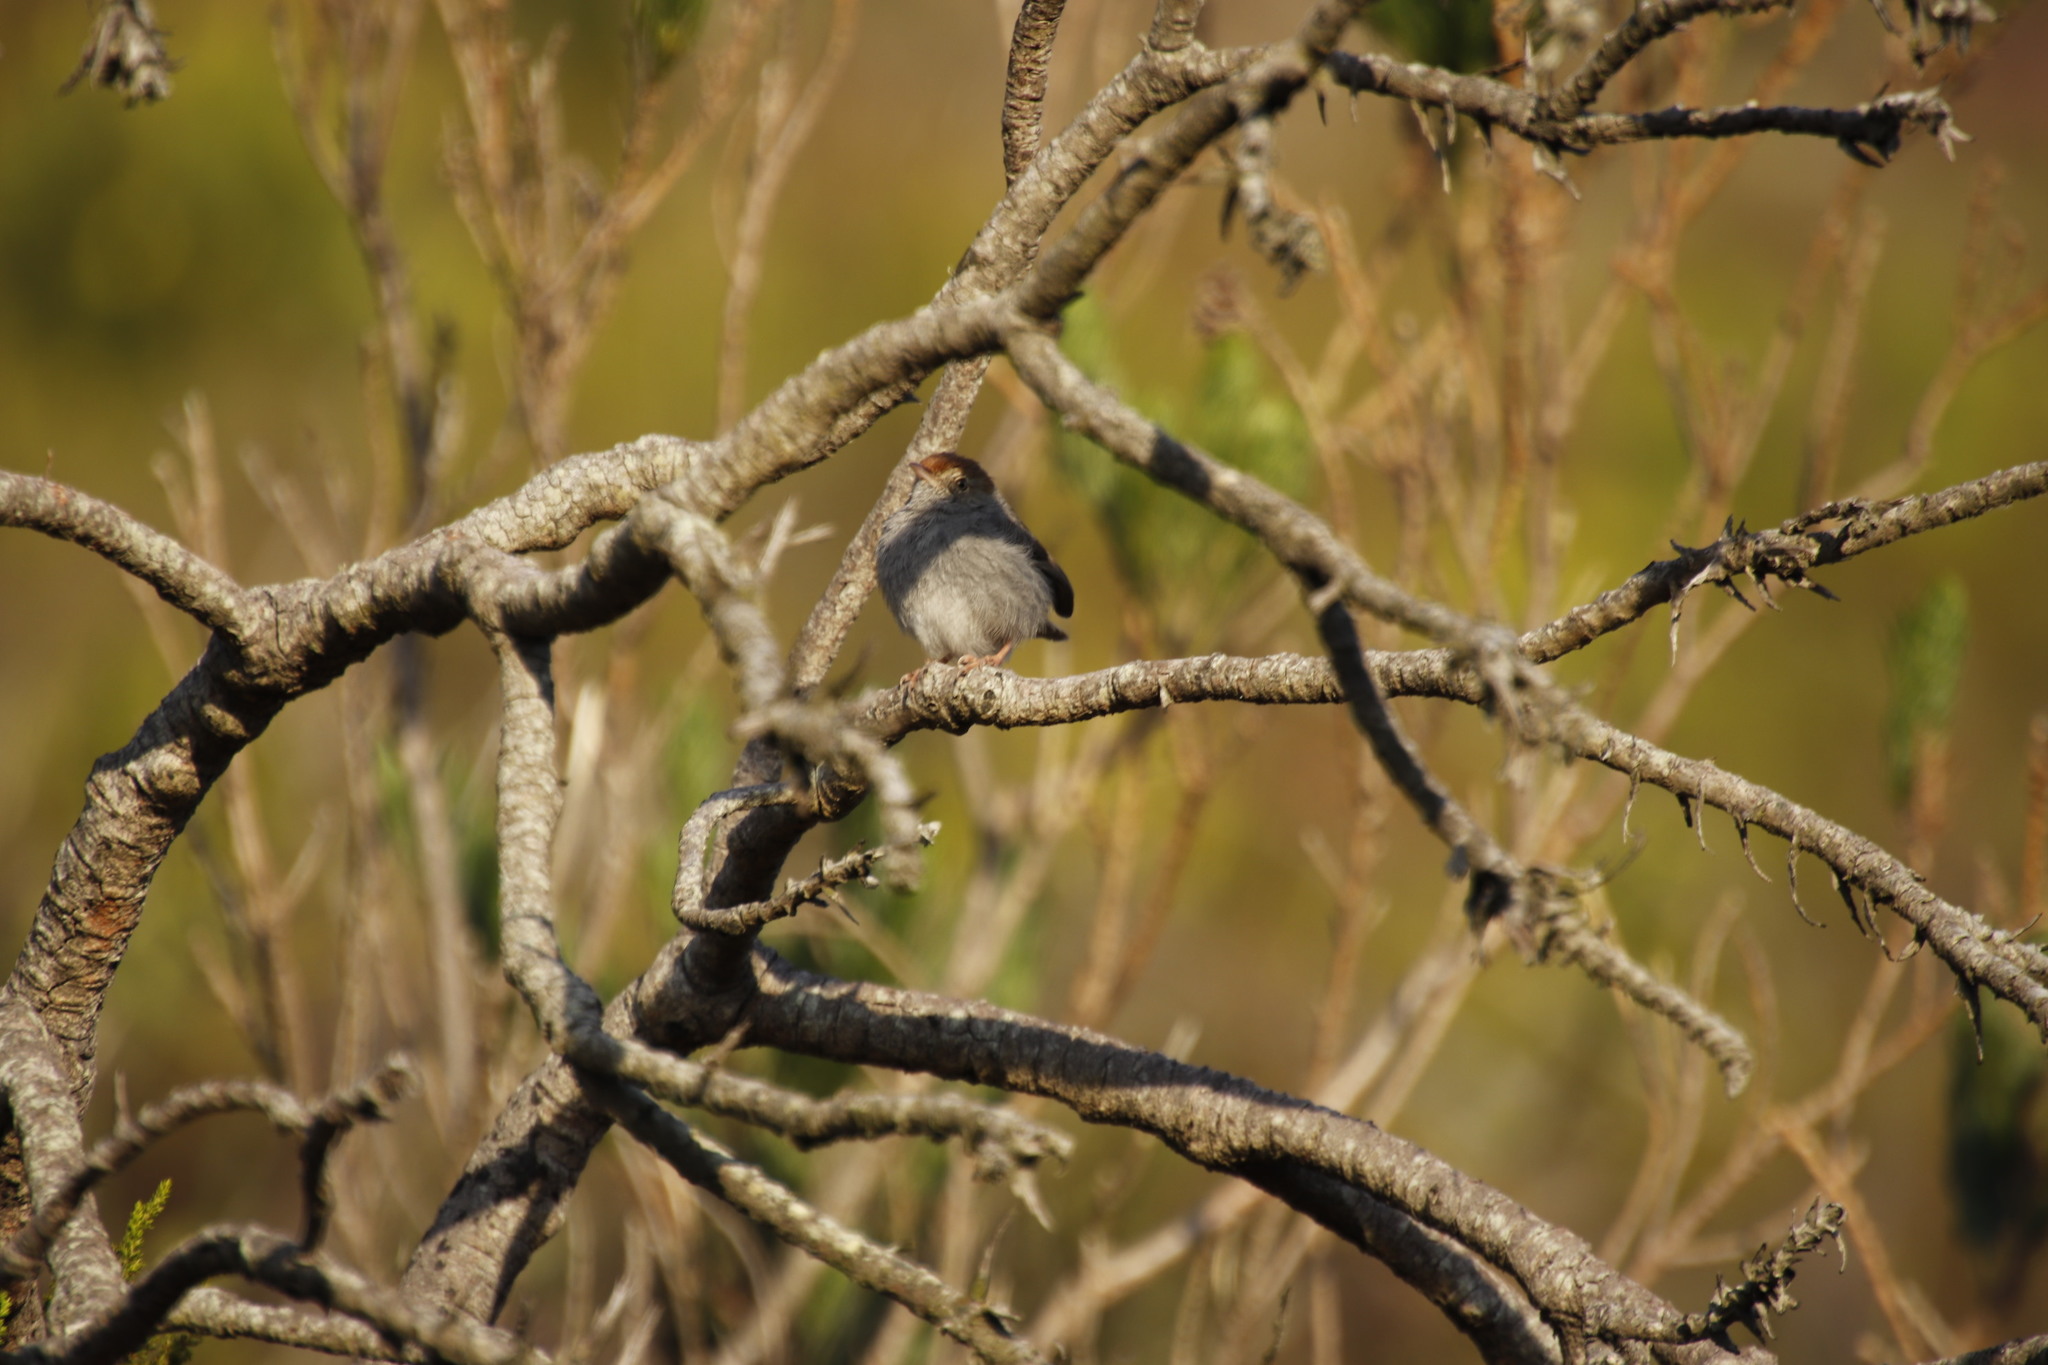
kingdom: Animalia
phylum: Chordata
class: Aves
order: Passeriformes
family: Cisticolidae
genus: Cisticola
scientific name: Cisticola fulvicapilla
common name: Neddicky
